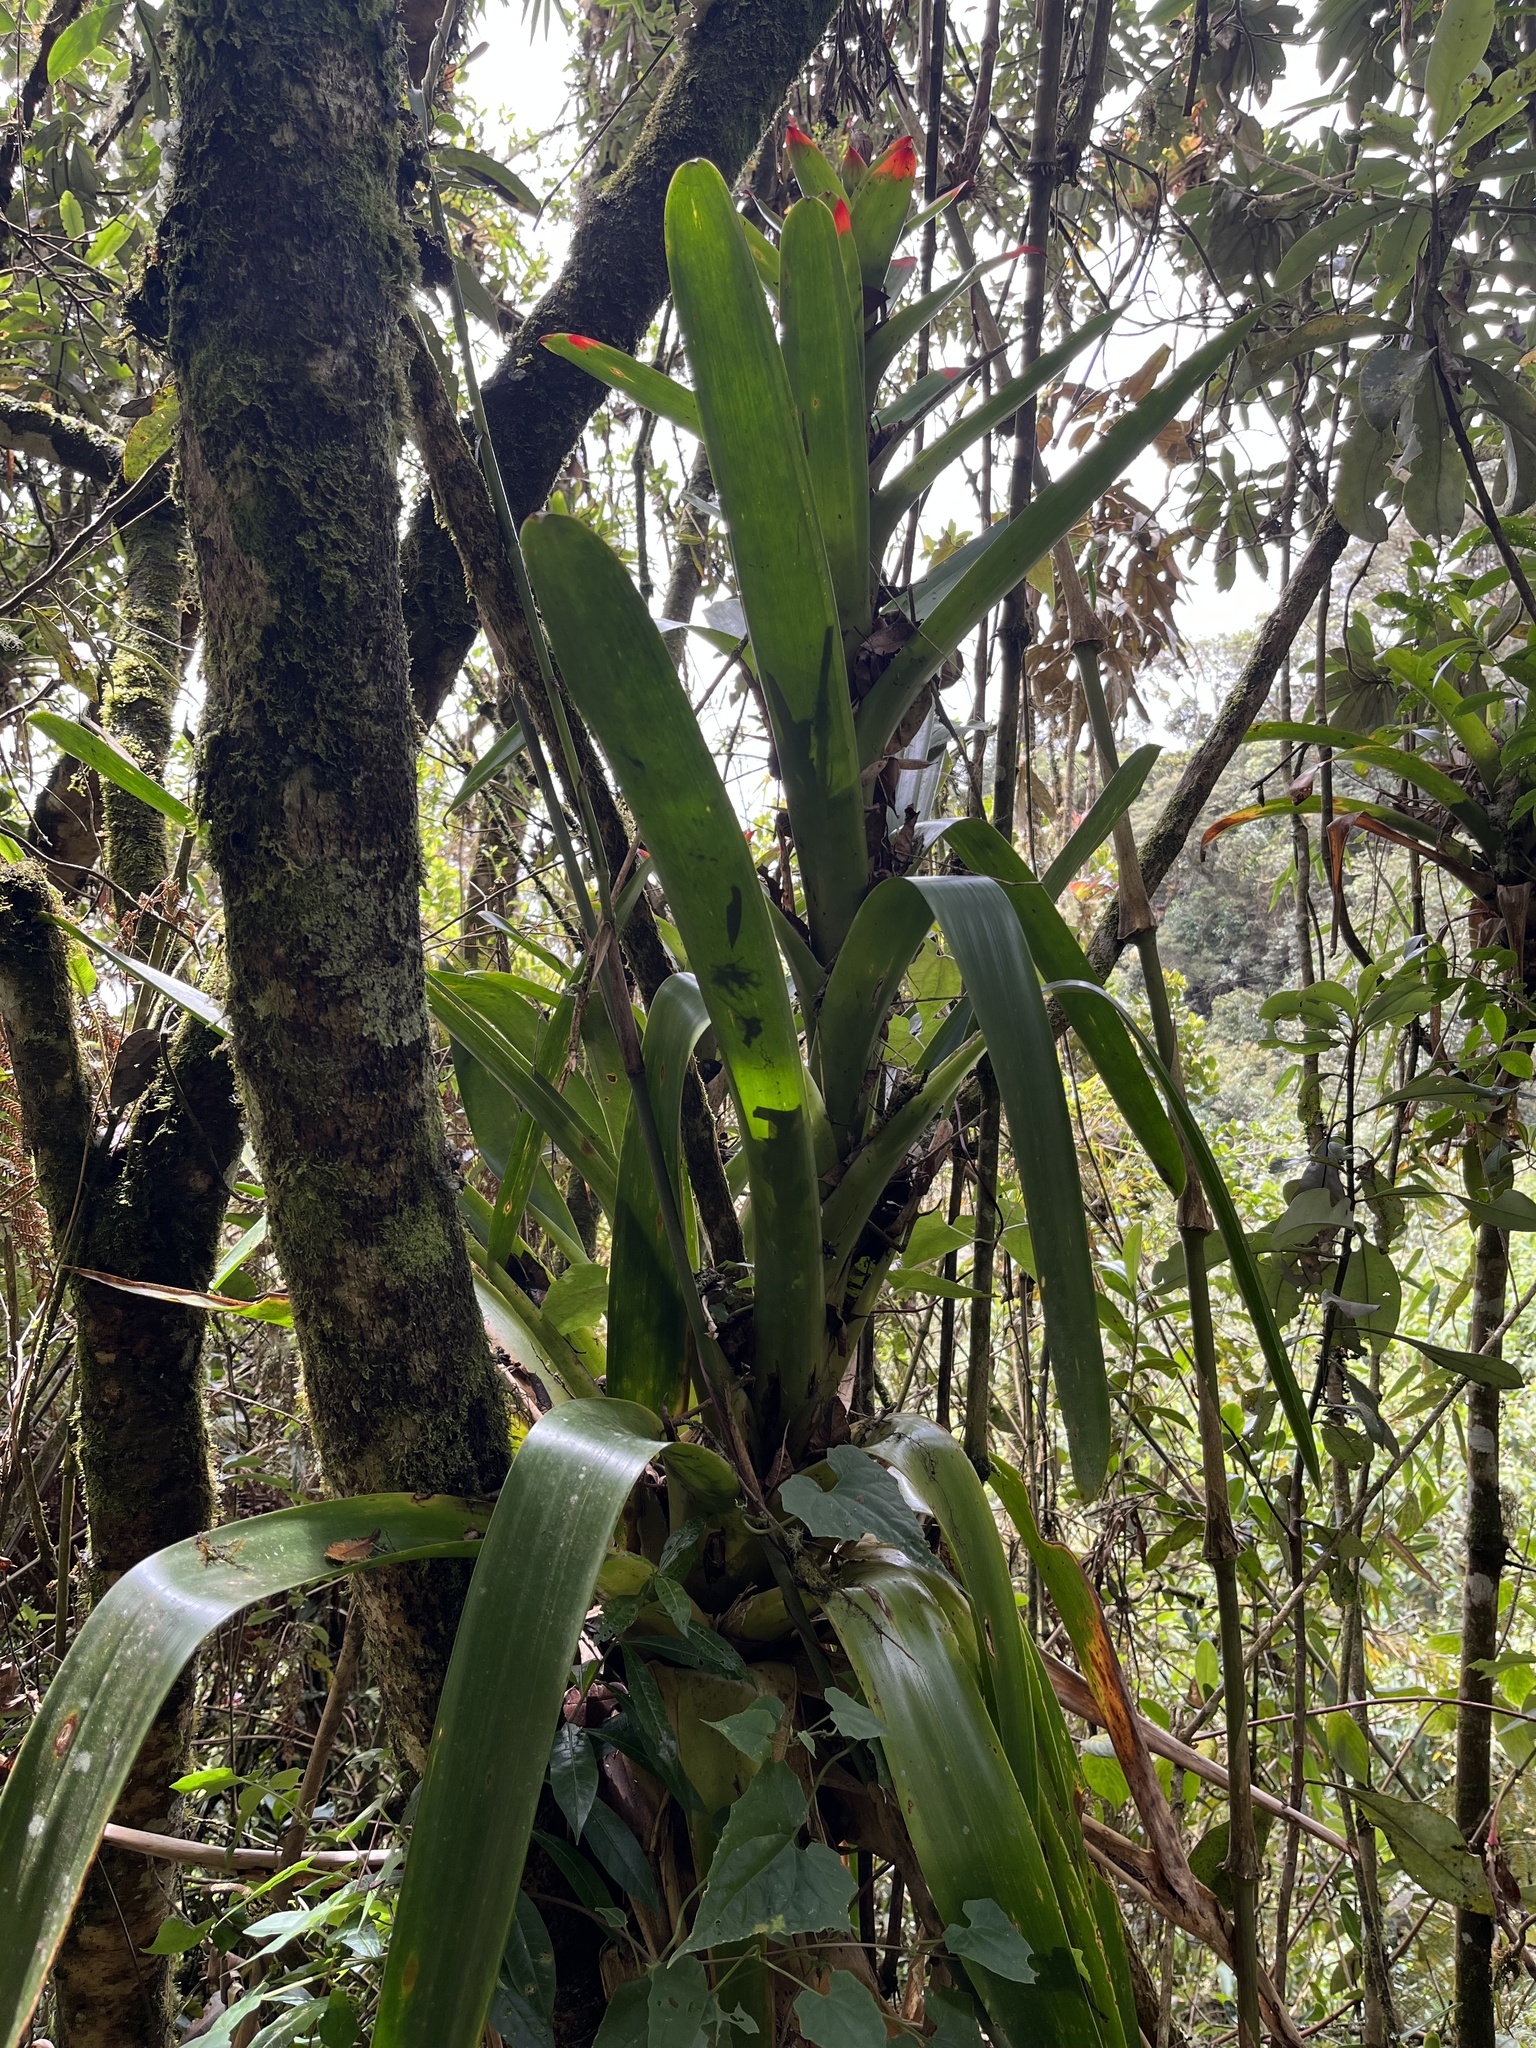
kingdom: Plantae
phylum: Tracheophyta
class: Liliopsida
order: Poales
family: Bromeliaceae
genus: Guzmania
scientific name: Guzmania gloriosa
